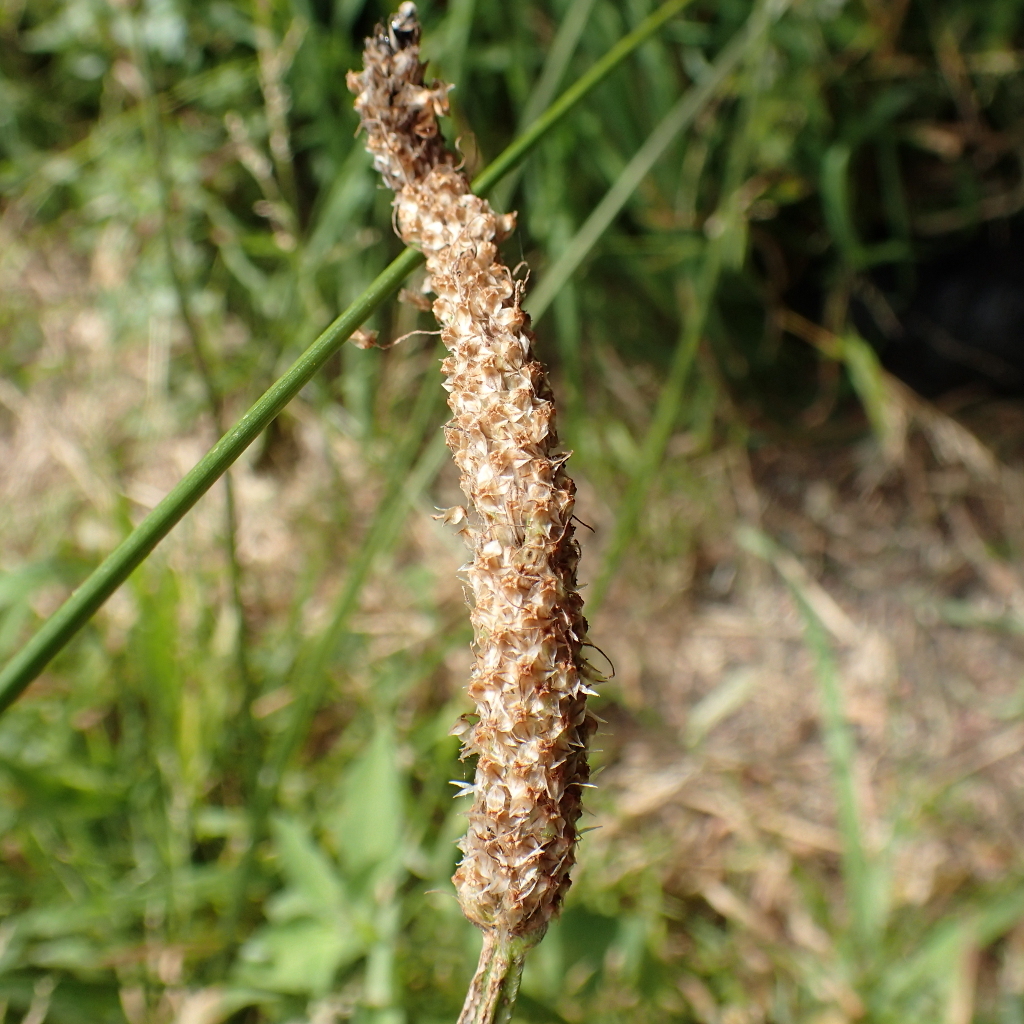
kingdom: Plantae
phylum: Tracheophyta
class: Magnoliopsida
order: Lamiales
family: Plantaginaceae
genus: Plantago
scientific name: Plantago major
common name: Common plantain
